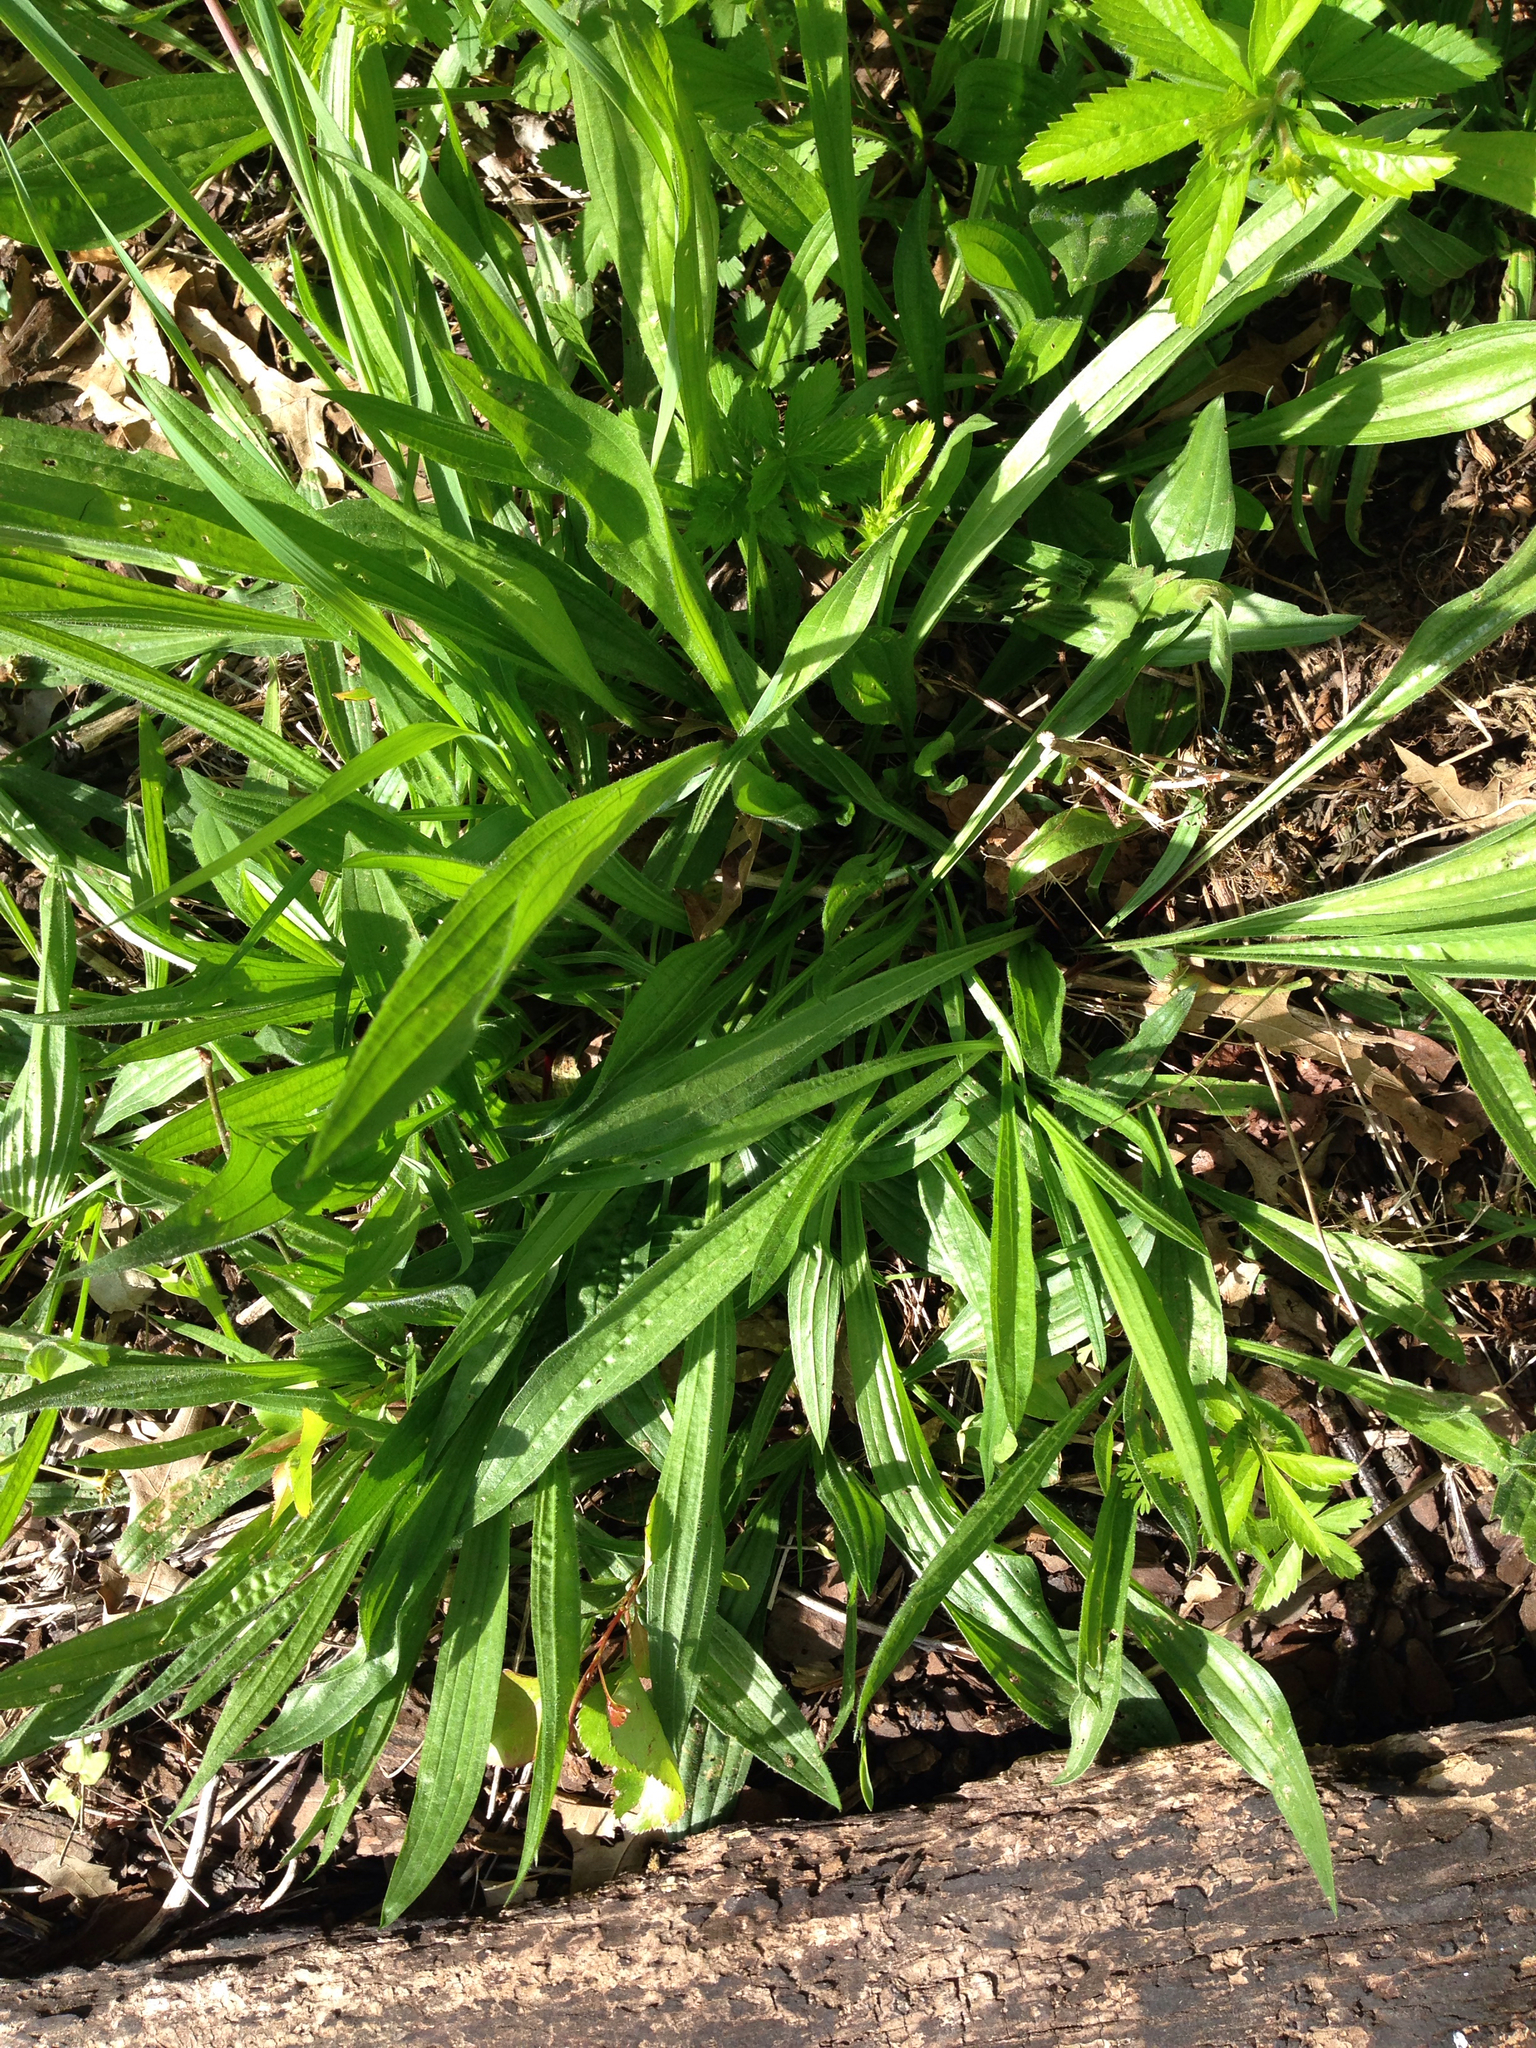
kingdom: Plantae
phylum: Tracheophyta
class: Magnoliopsida
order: Lamiales
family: Plantaginaceae
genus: Plantago
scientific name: Plantago lanceolata
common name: Ribwort plantain
